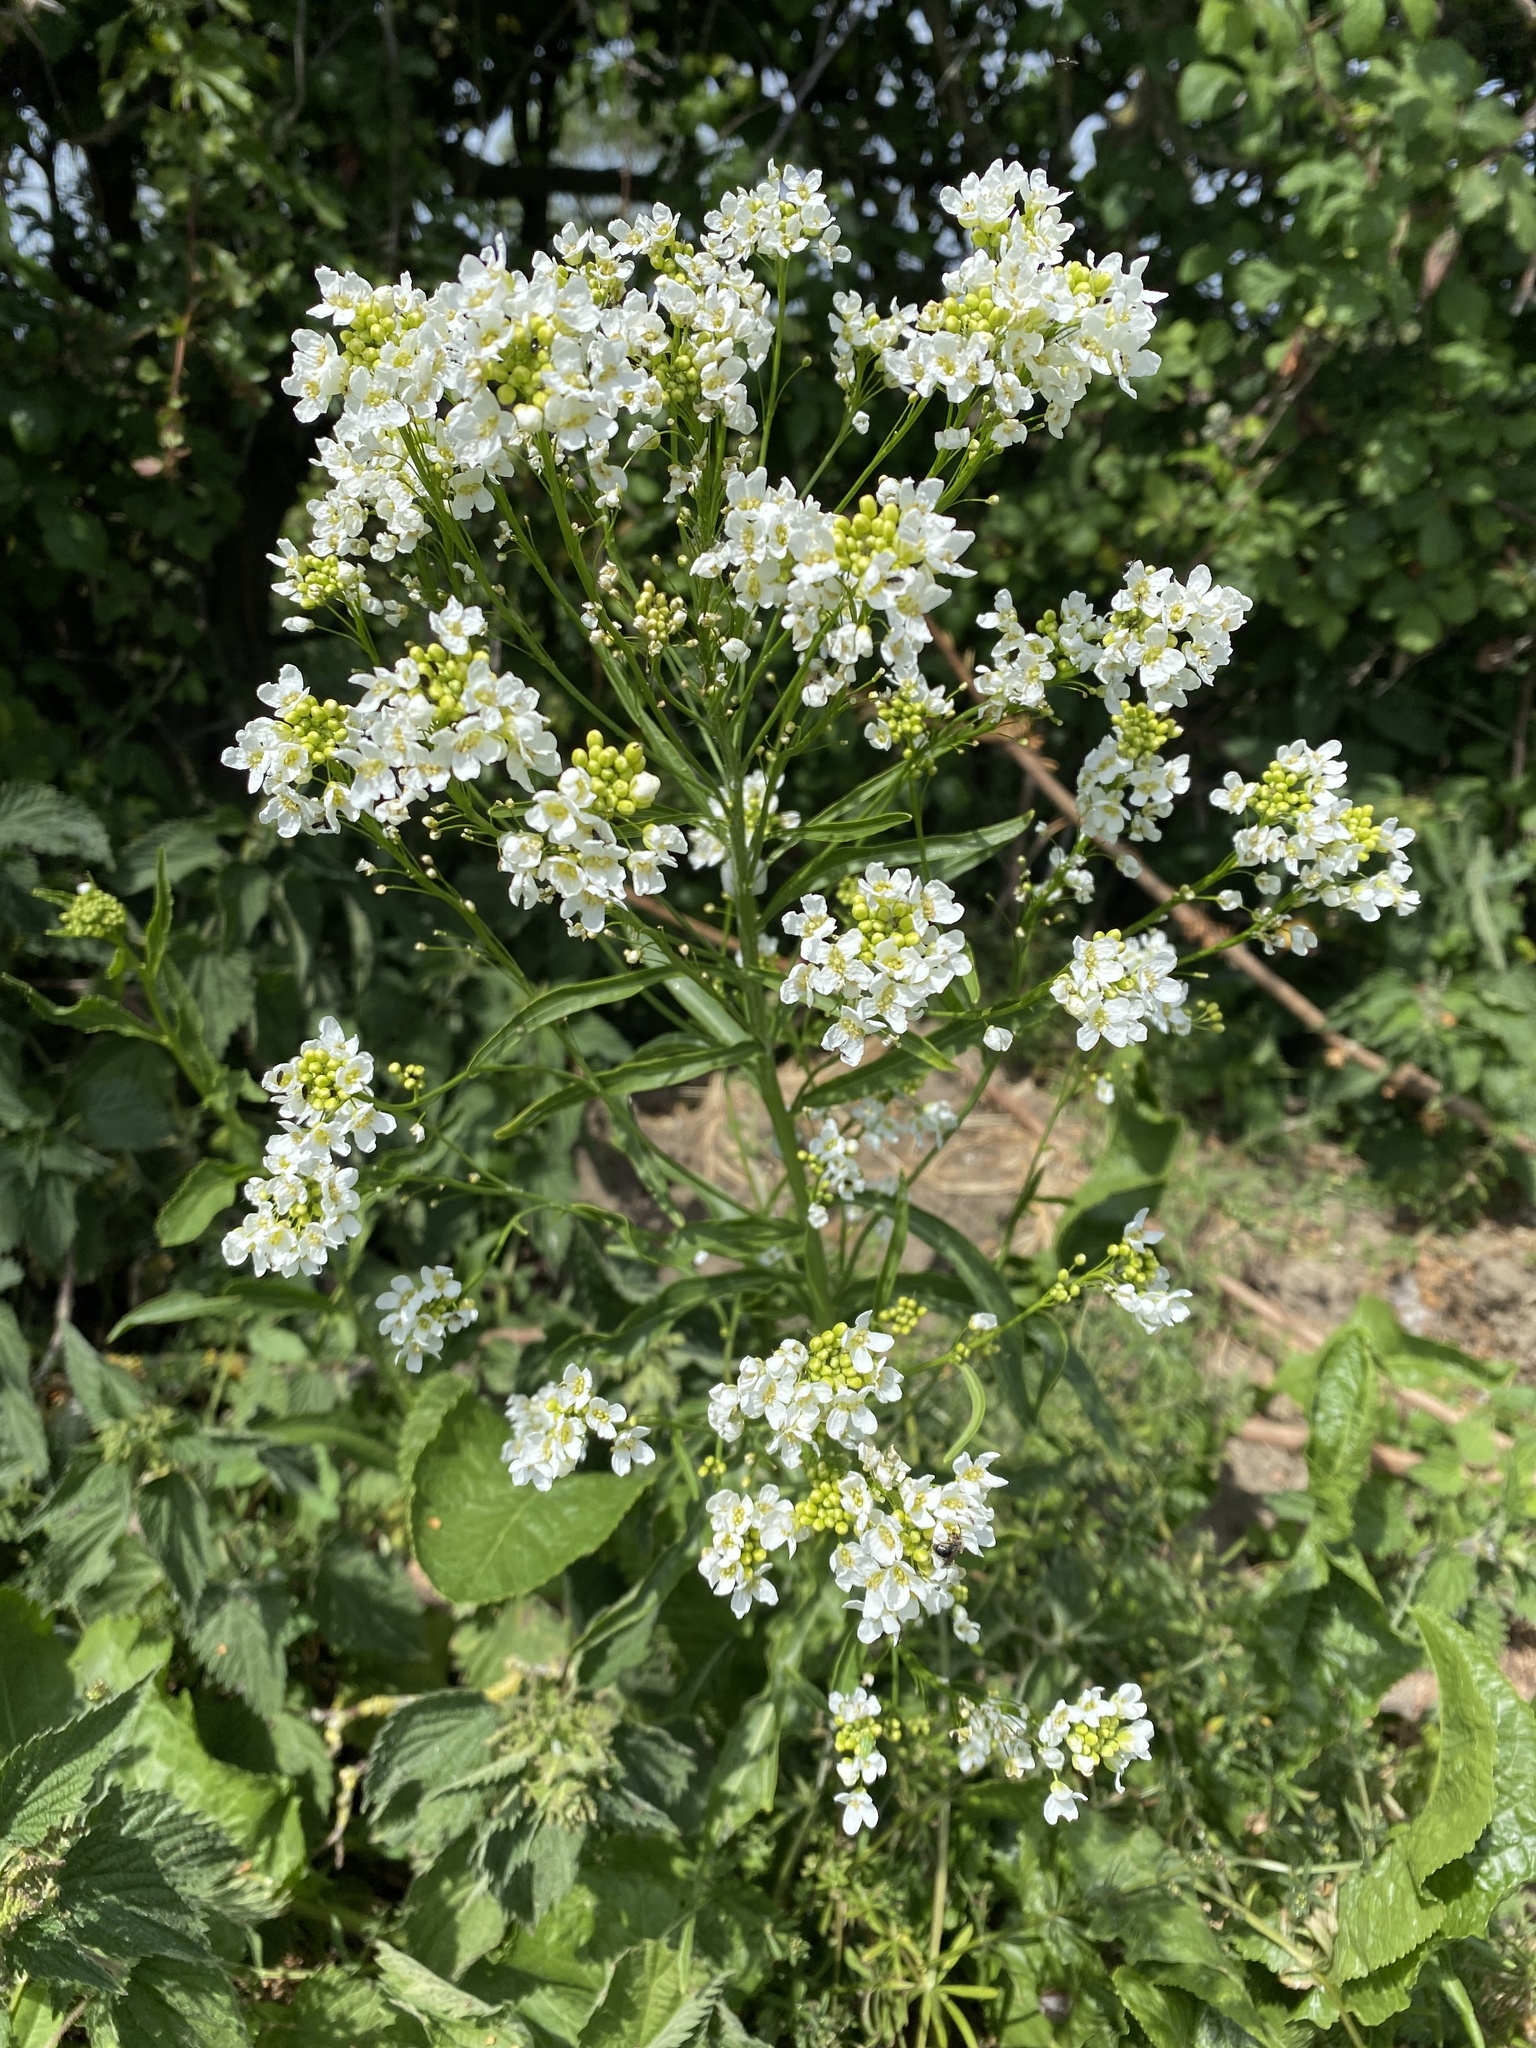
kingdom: Plantae
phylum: Tracheophyta
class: Magnoliopsida
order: Brassicales
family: Brassicaceae
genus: Armoracia
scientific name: Armoracia rusticana
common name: Horseradish
